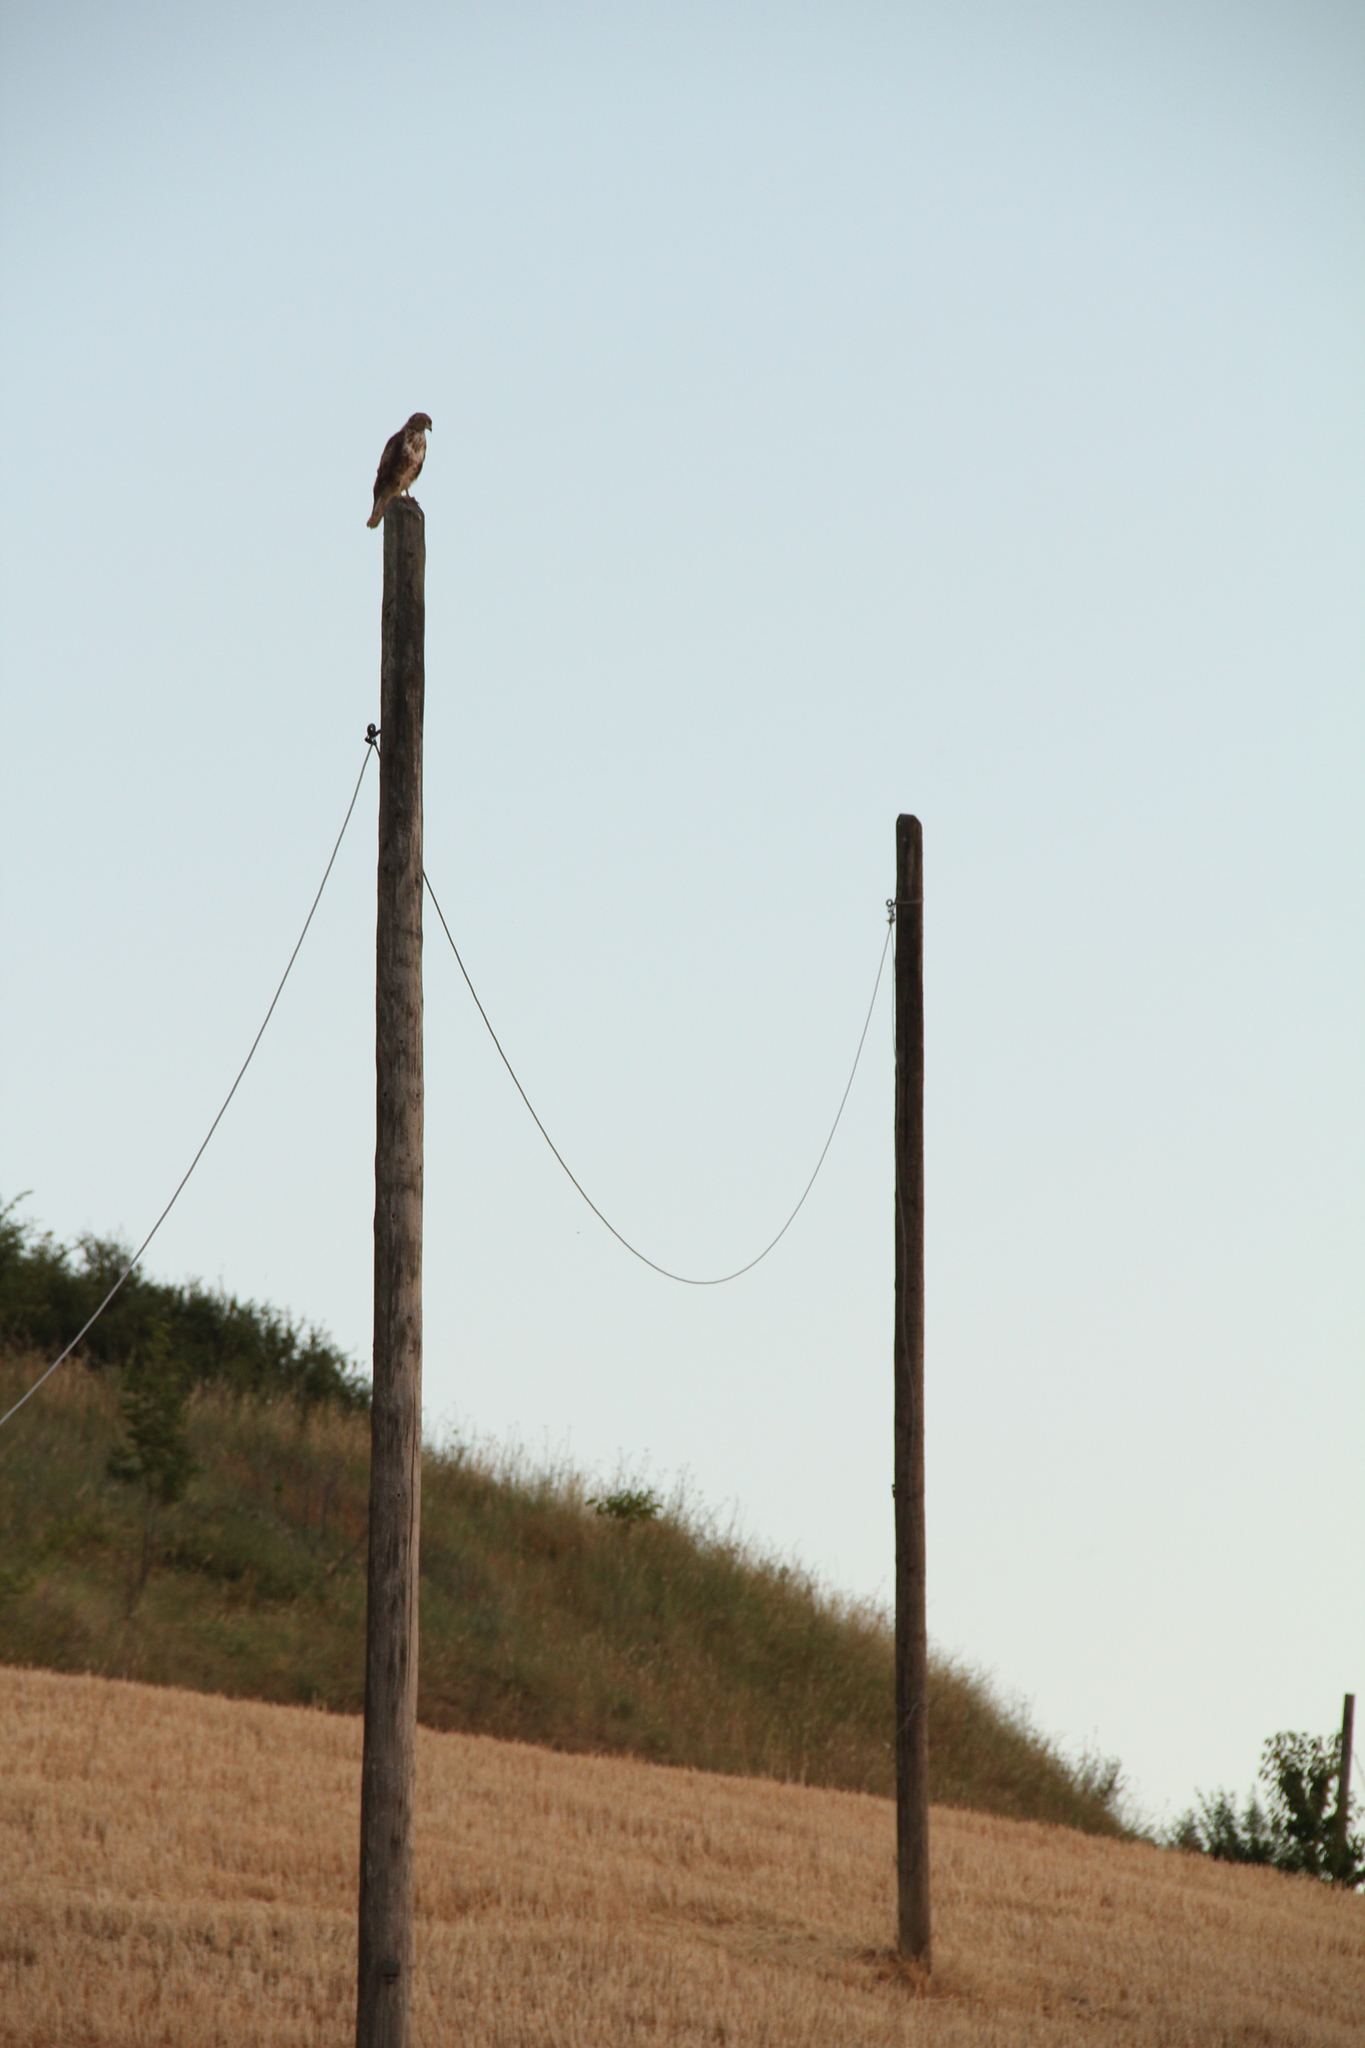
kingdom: Animalia
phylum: Chordata
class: Aves
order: Accipitriformes
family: Accipitridae
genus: Buteo
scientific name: Buteo buteo
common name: Common buzzard
